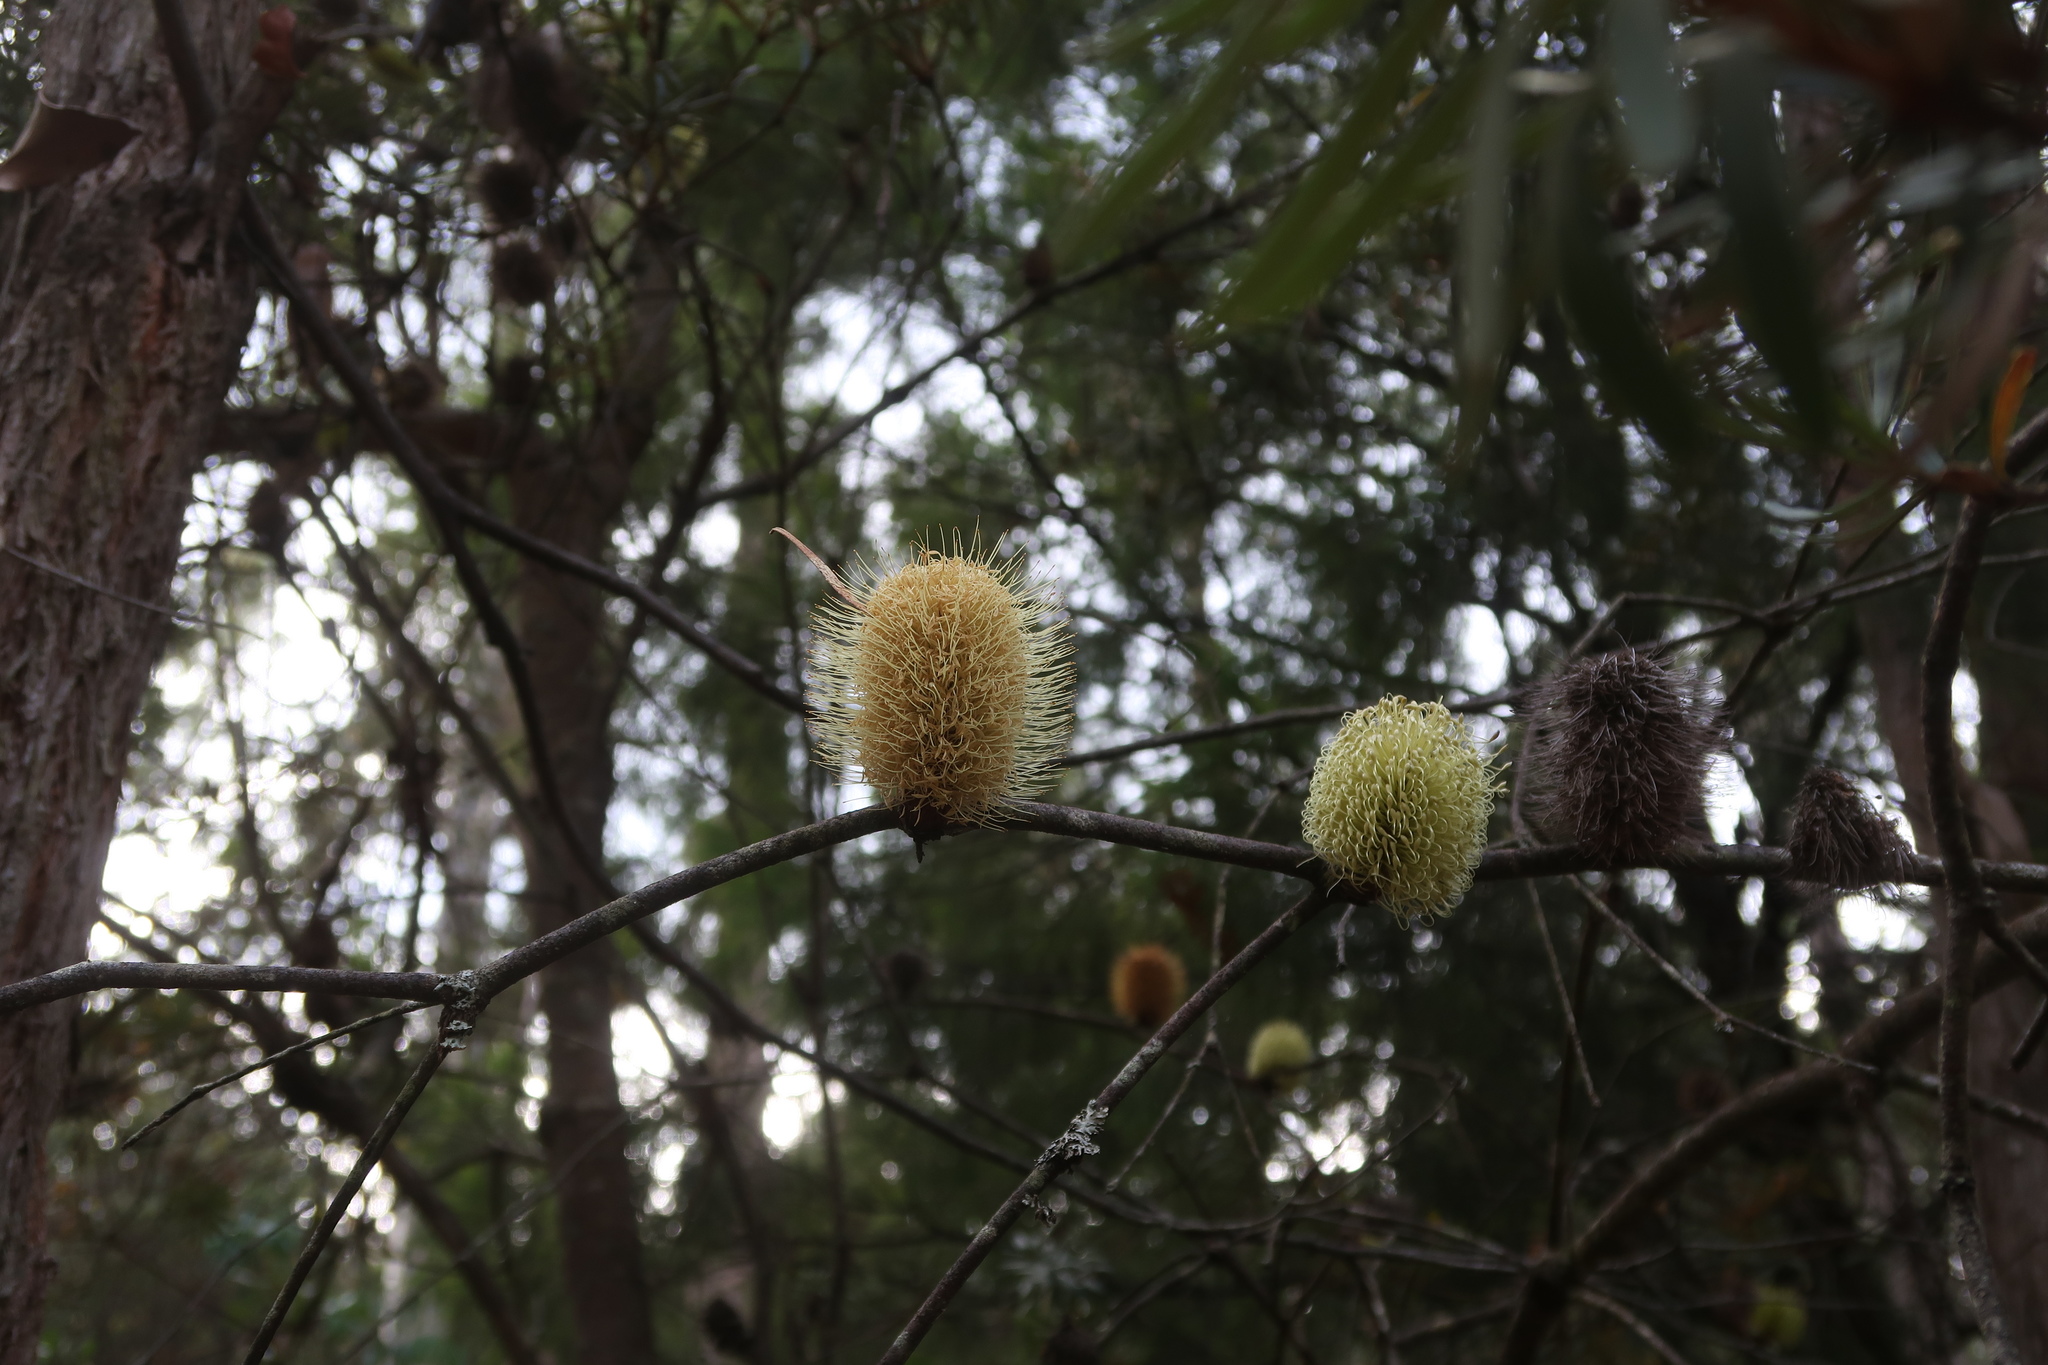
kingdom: Plantae
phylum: Tracheophyta
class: Magnoliopsida
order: Proteales
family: Proteaceae
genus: Banksia
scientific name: Banksia marginata
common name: Silver banksia
